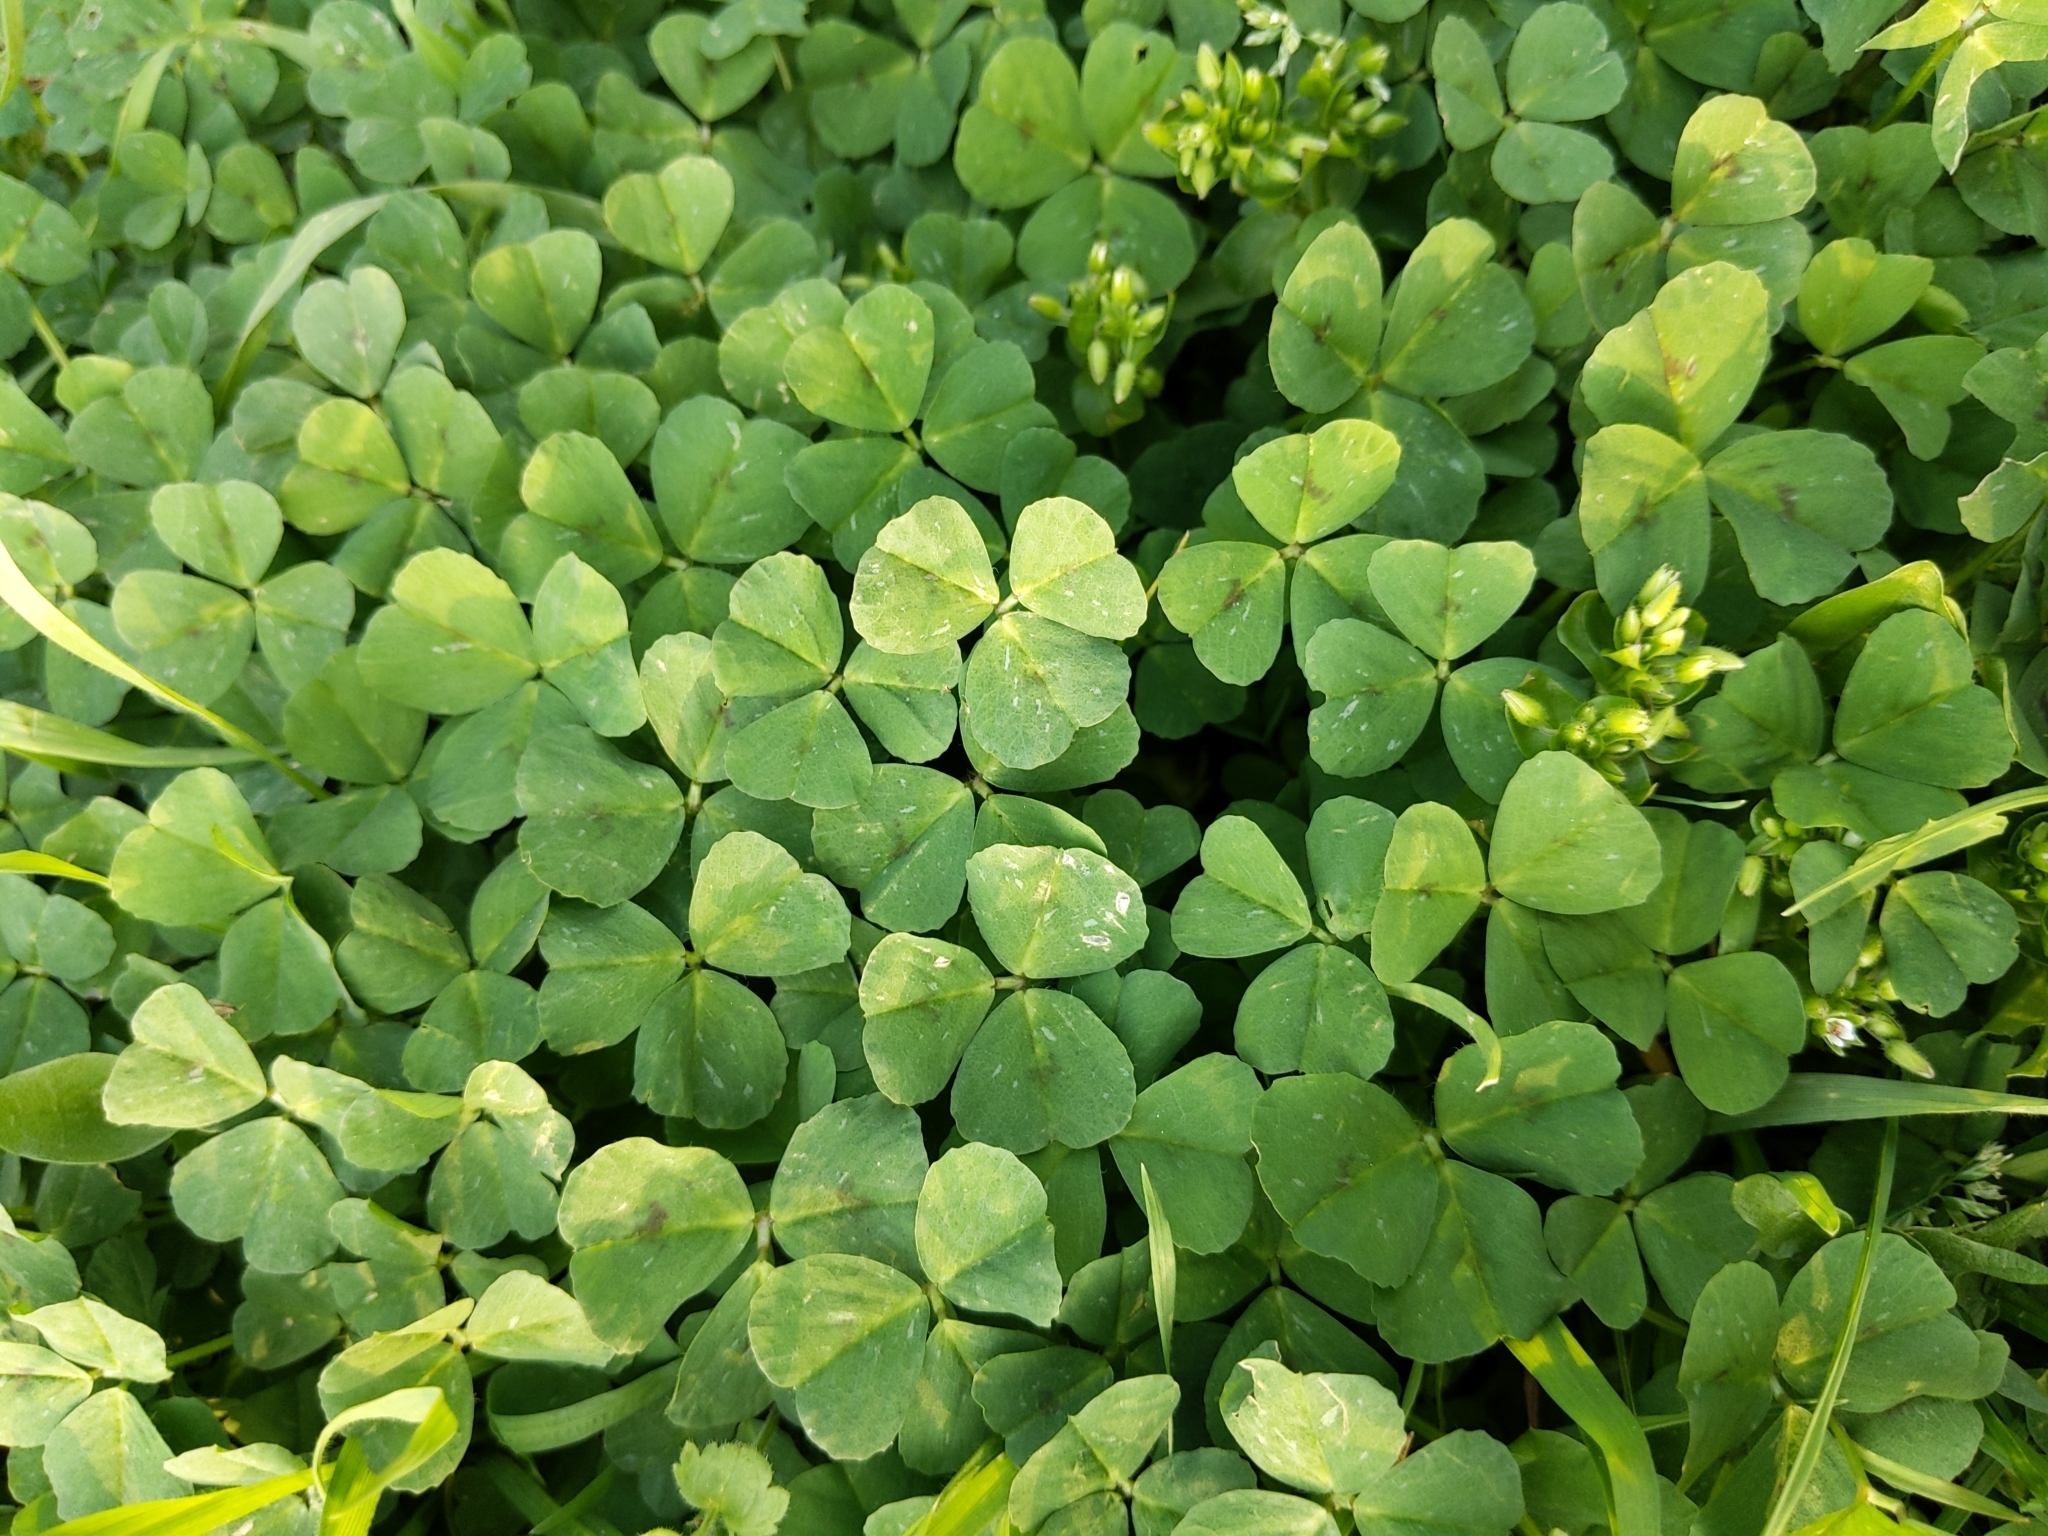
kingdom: Plantae
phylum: Tracheophyta
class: Magnoliopsida
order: Fabales
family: Fabaceae
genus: Medicago
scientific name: Medicago arabica
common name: Spotted medick
